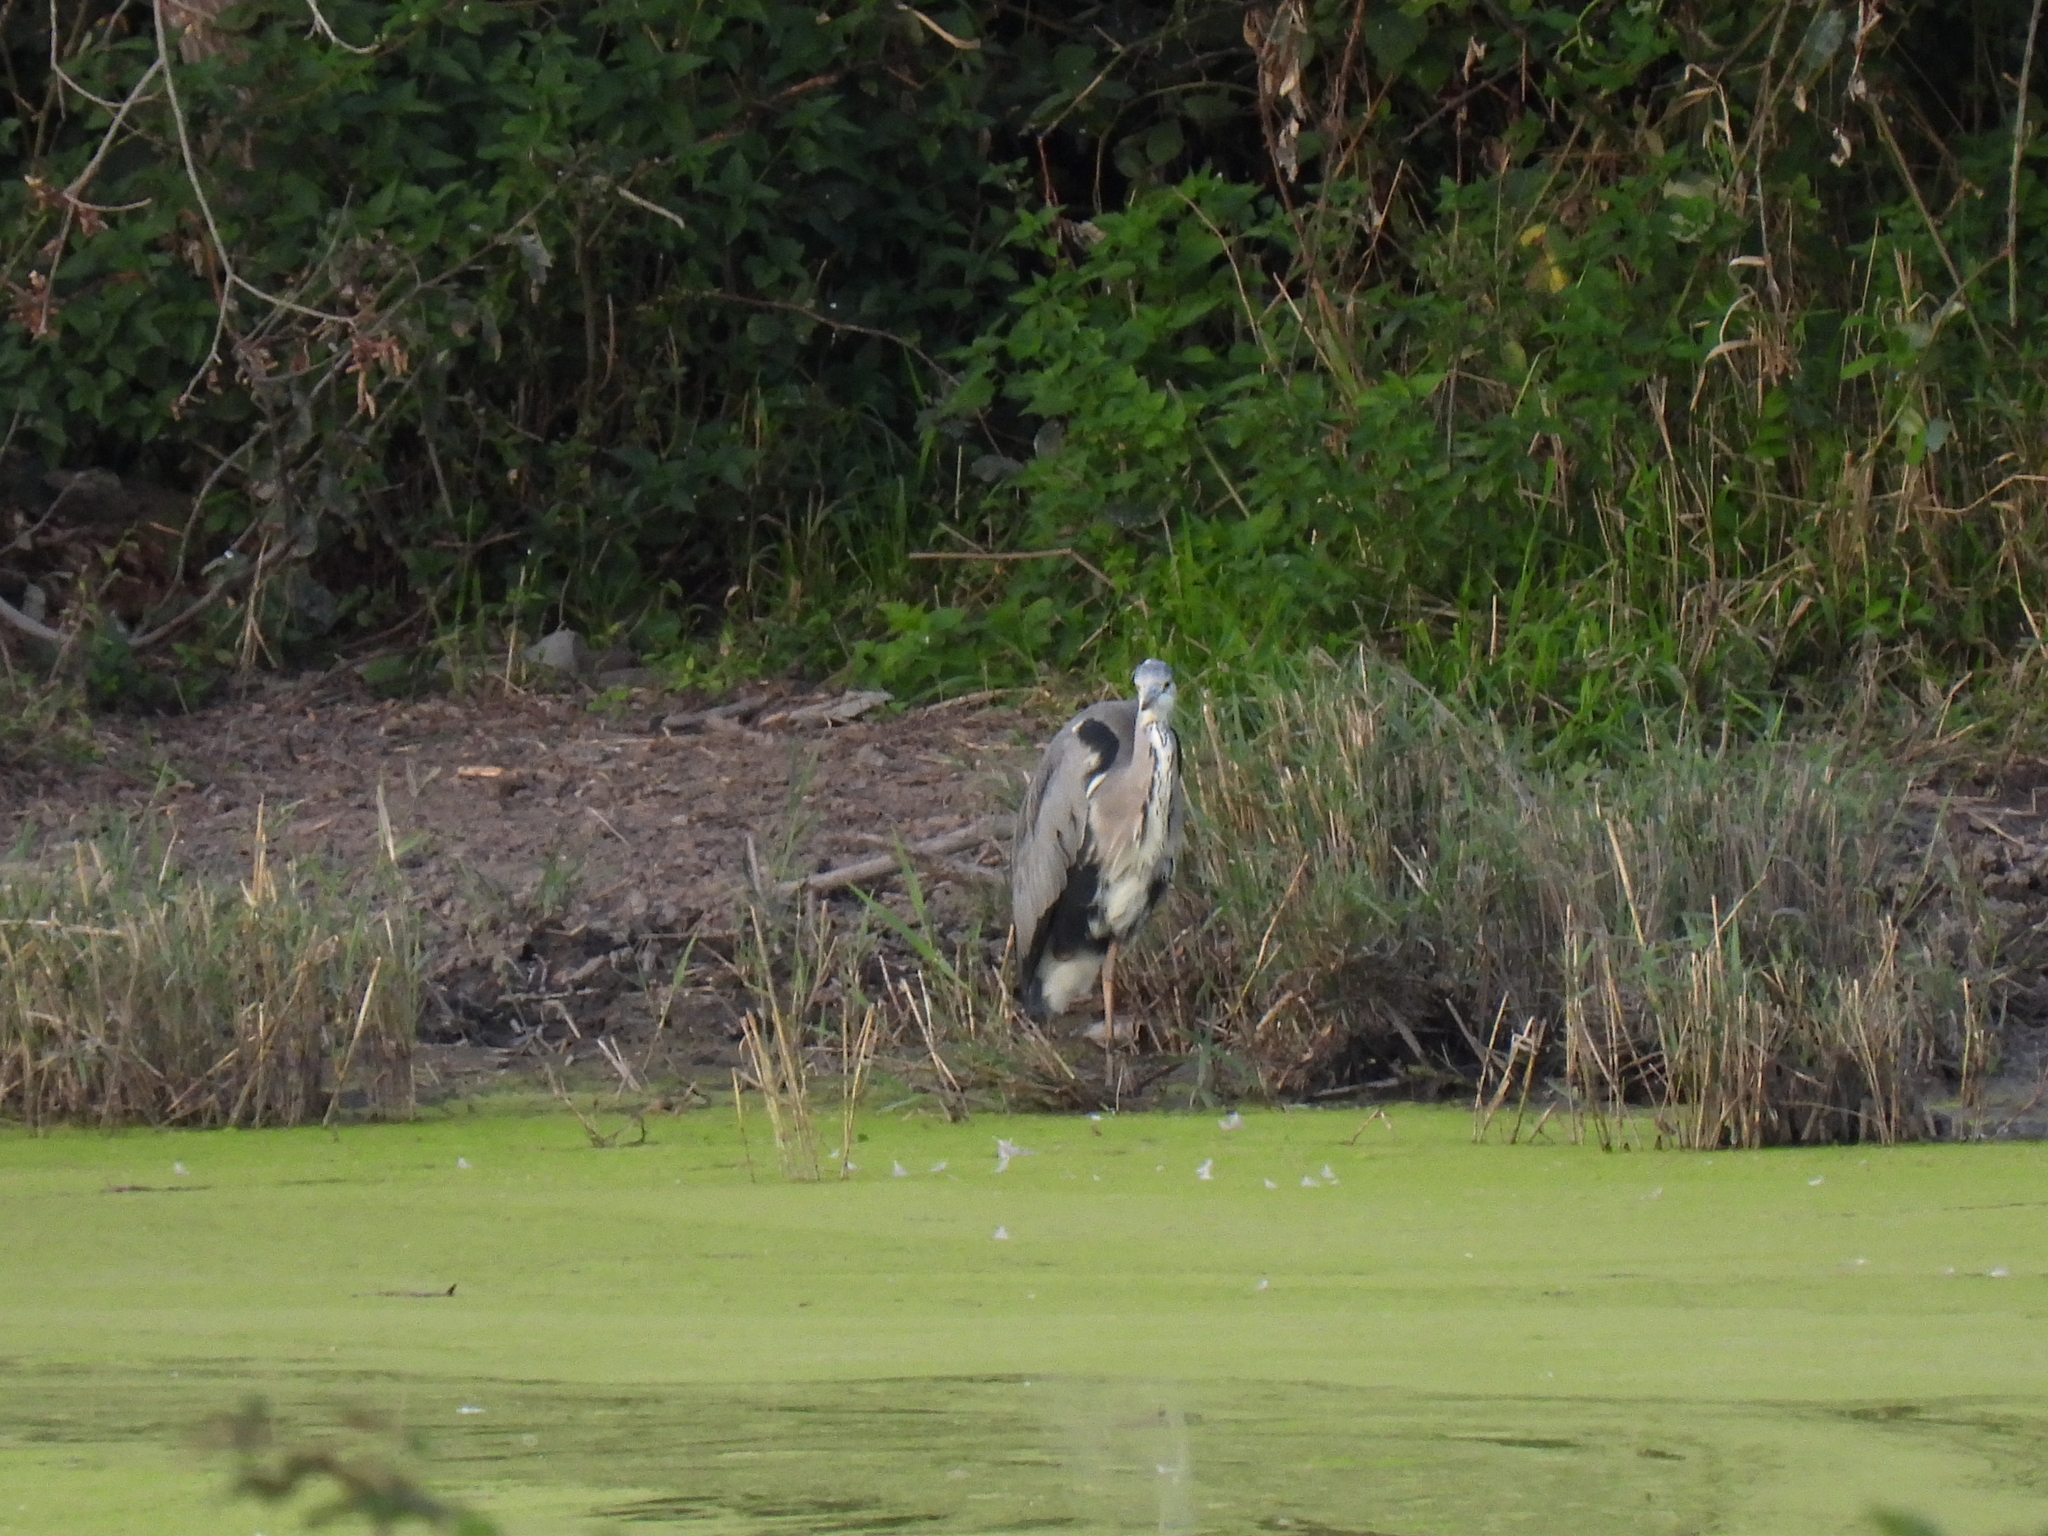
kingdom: Animalia
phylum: Chordata
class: Aves
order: Pelecaniformes
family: Ardeidae
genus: Ardea
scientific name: Ardea cinerea
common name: Grey heron
